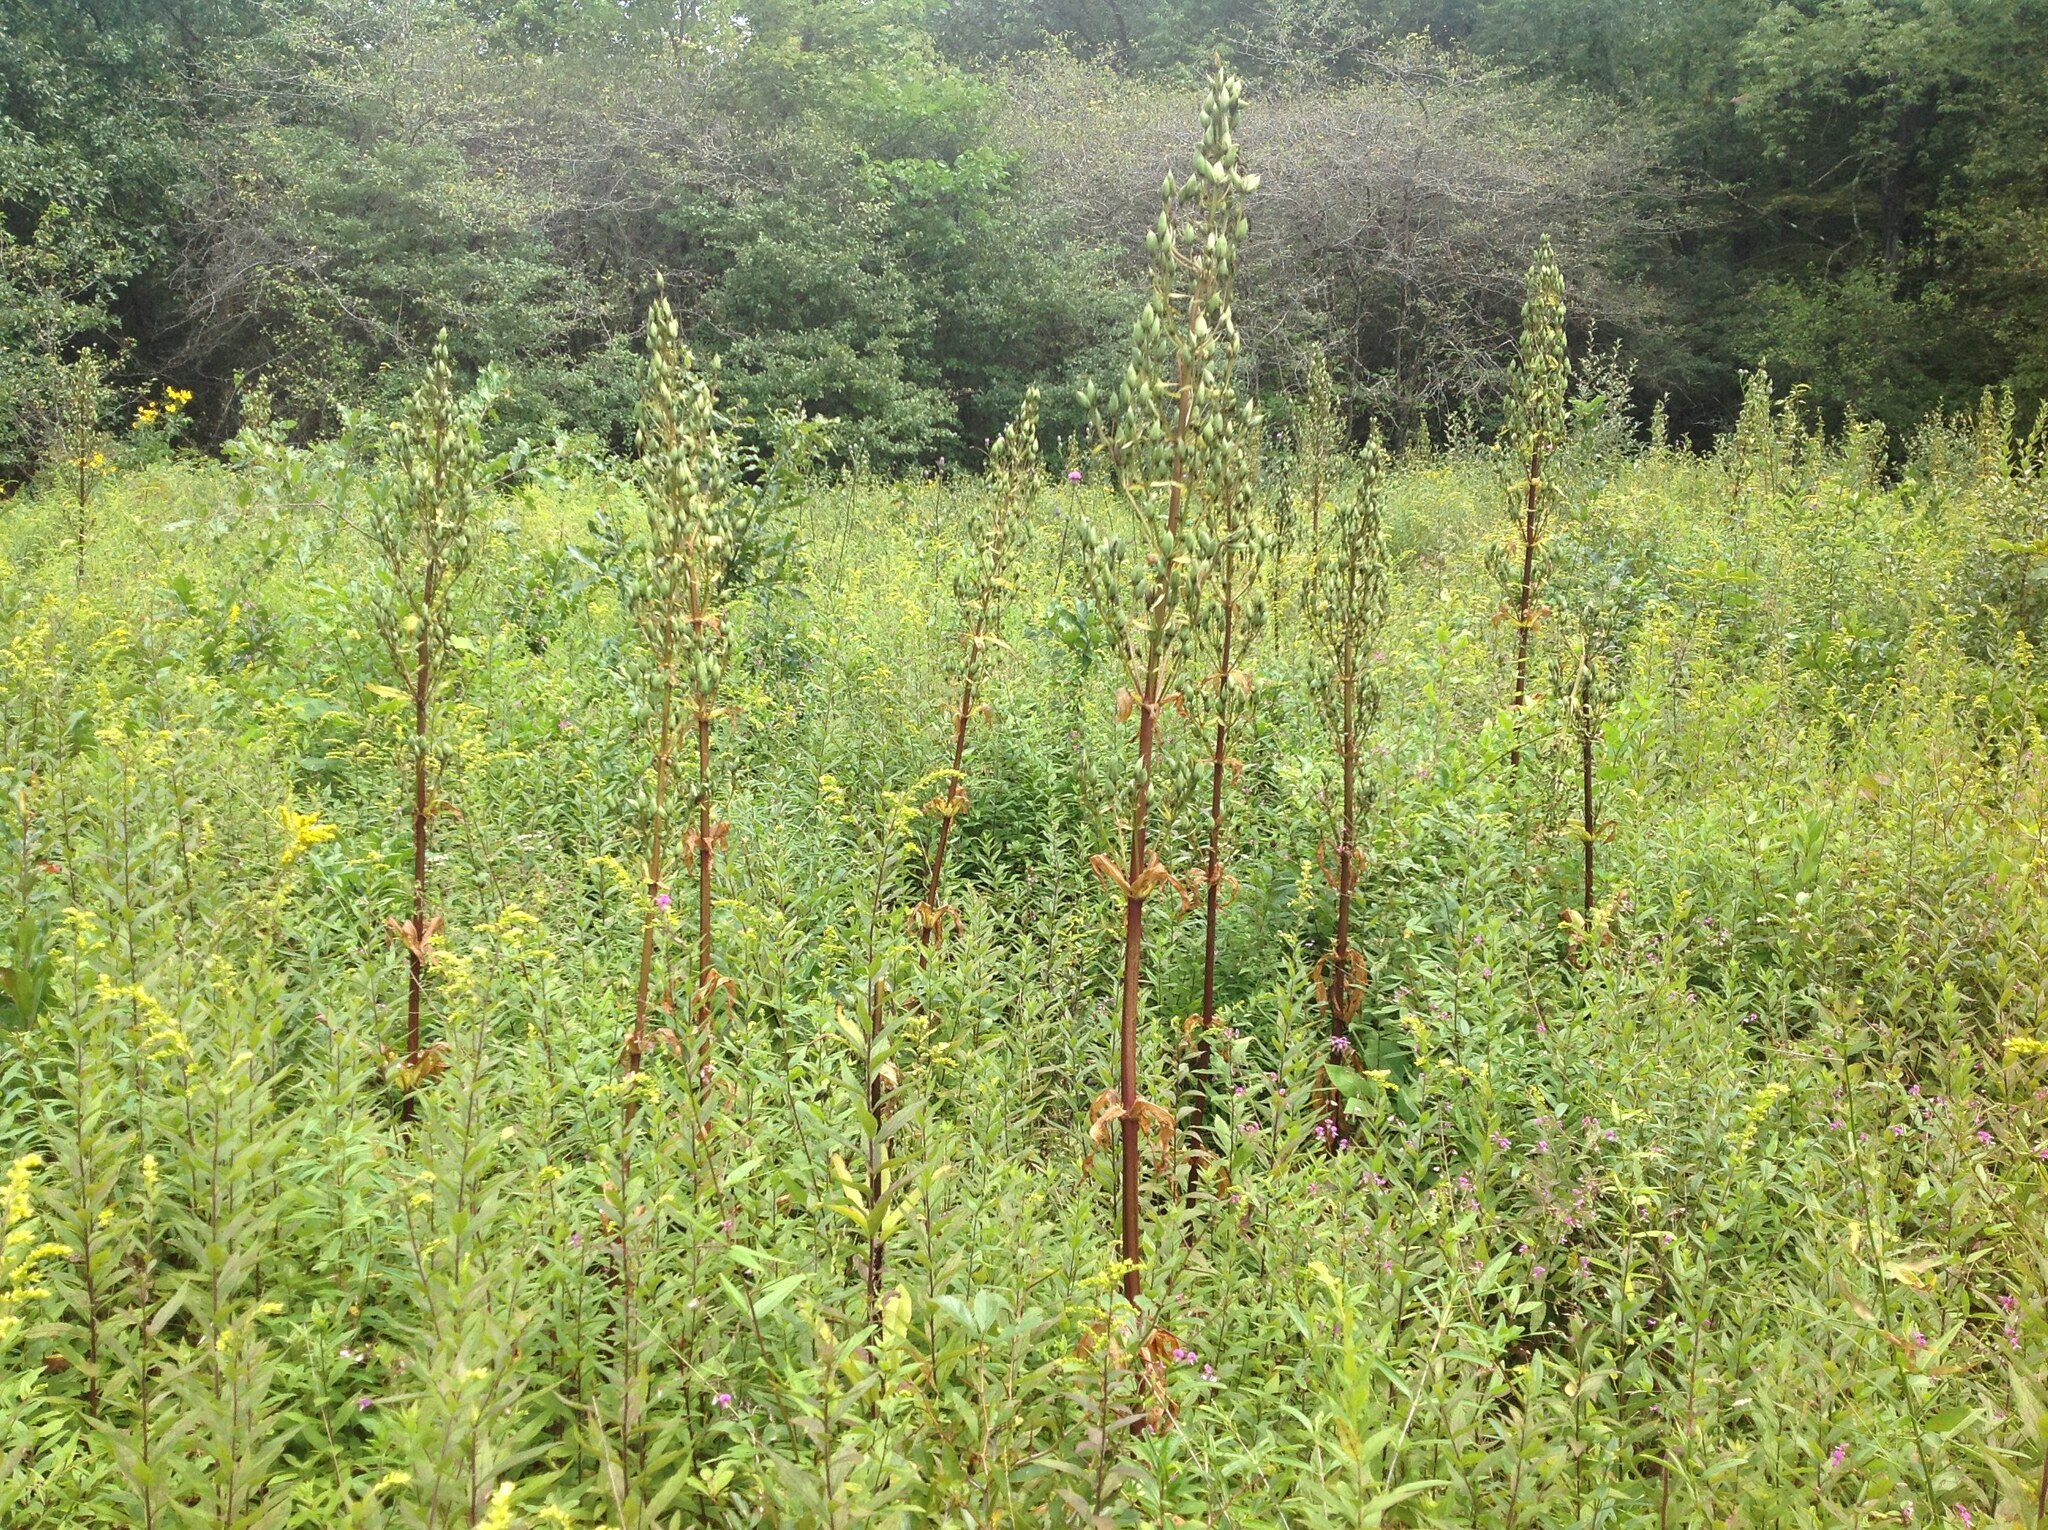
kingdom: Plantae
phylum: Tracheophyta
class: Magnoliopsida
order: Gentianales
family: Gentianaceae
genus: Frasera
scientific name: Frasera caroliniensis
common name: American columbo
